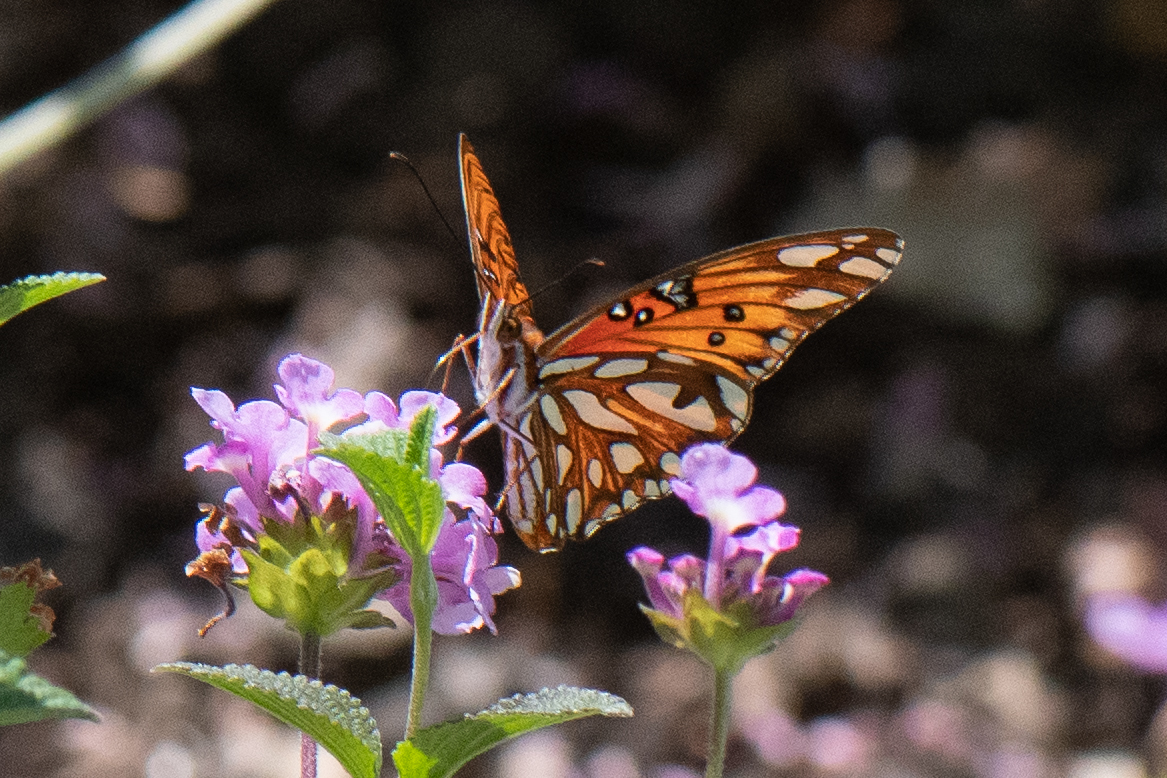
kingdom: Animalia
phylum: Arthropoda
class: Insecta
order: Lepidoptera
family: Nymphalidae
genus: Dione
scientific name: Dione vanillae
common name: Gulf fritillary
